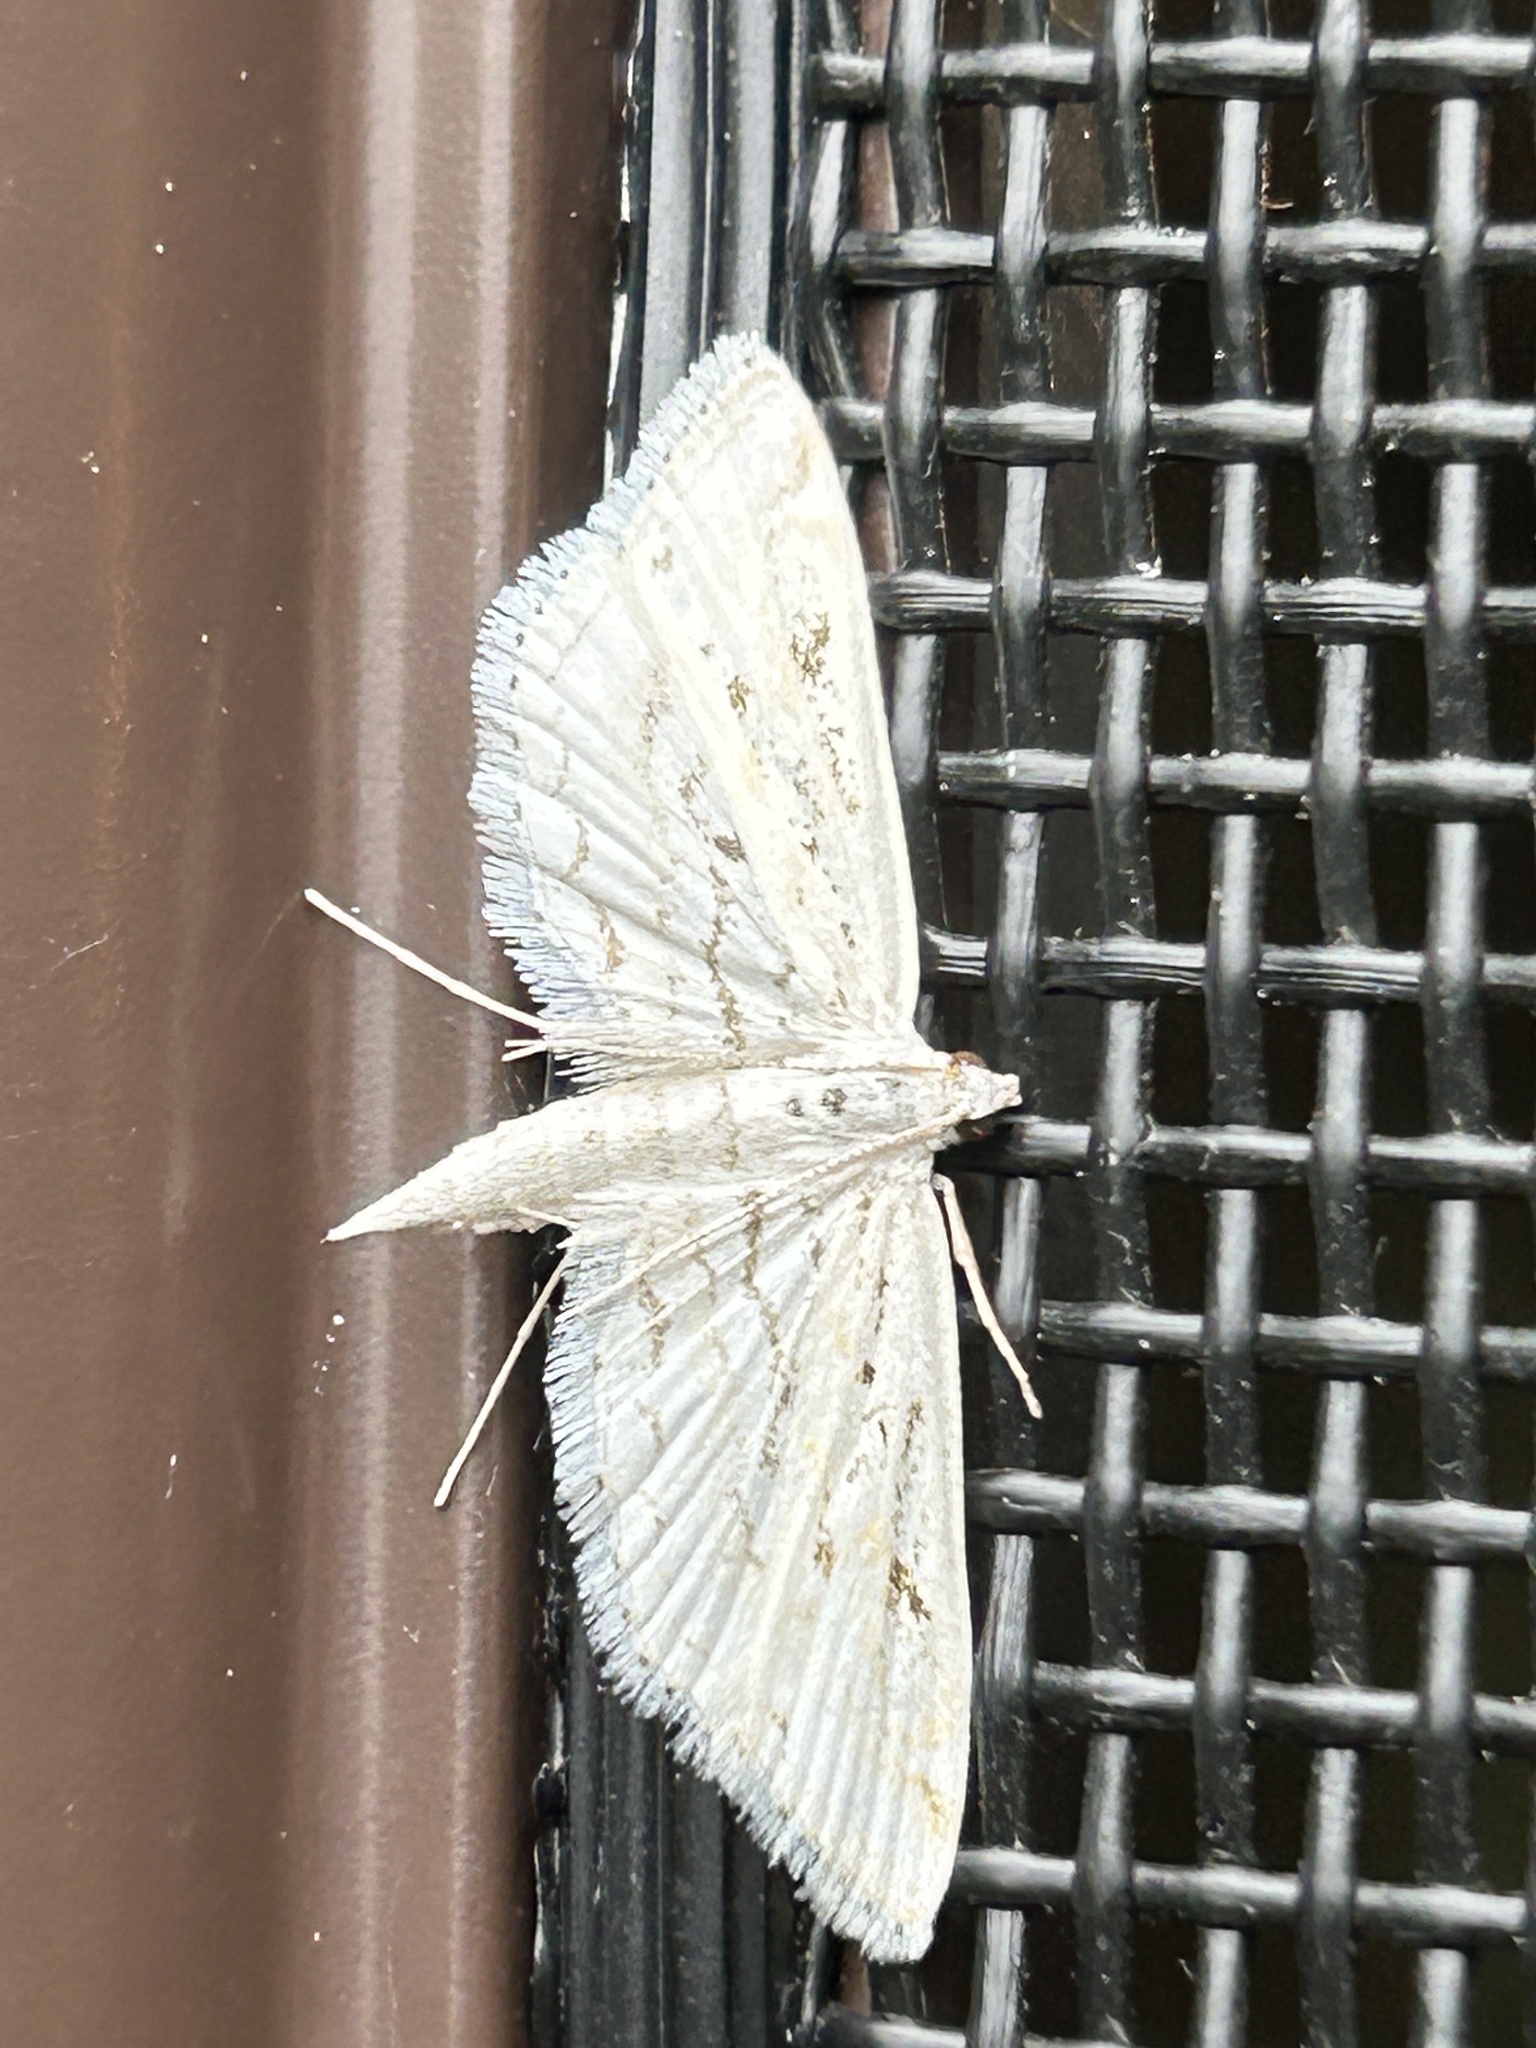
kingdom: Animalia
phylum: Arthropoda
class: Insecta
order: Lepidoptera
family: Crambidae
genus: Parapoynx
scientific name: Parapoynx allionealis
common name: Bladderwort casemaker
